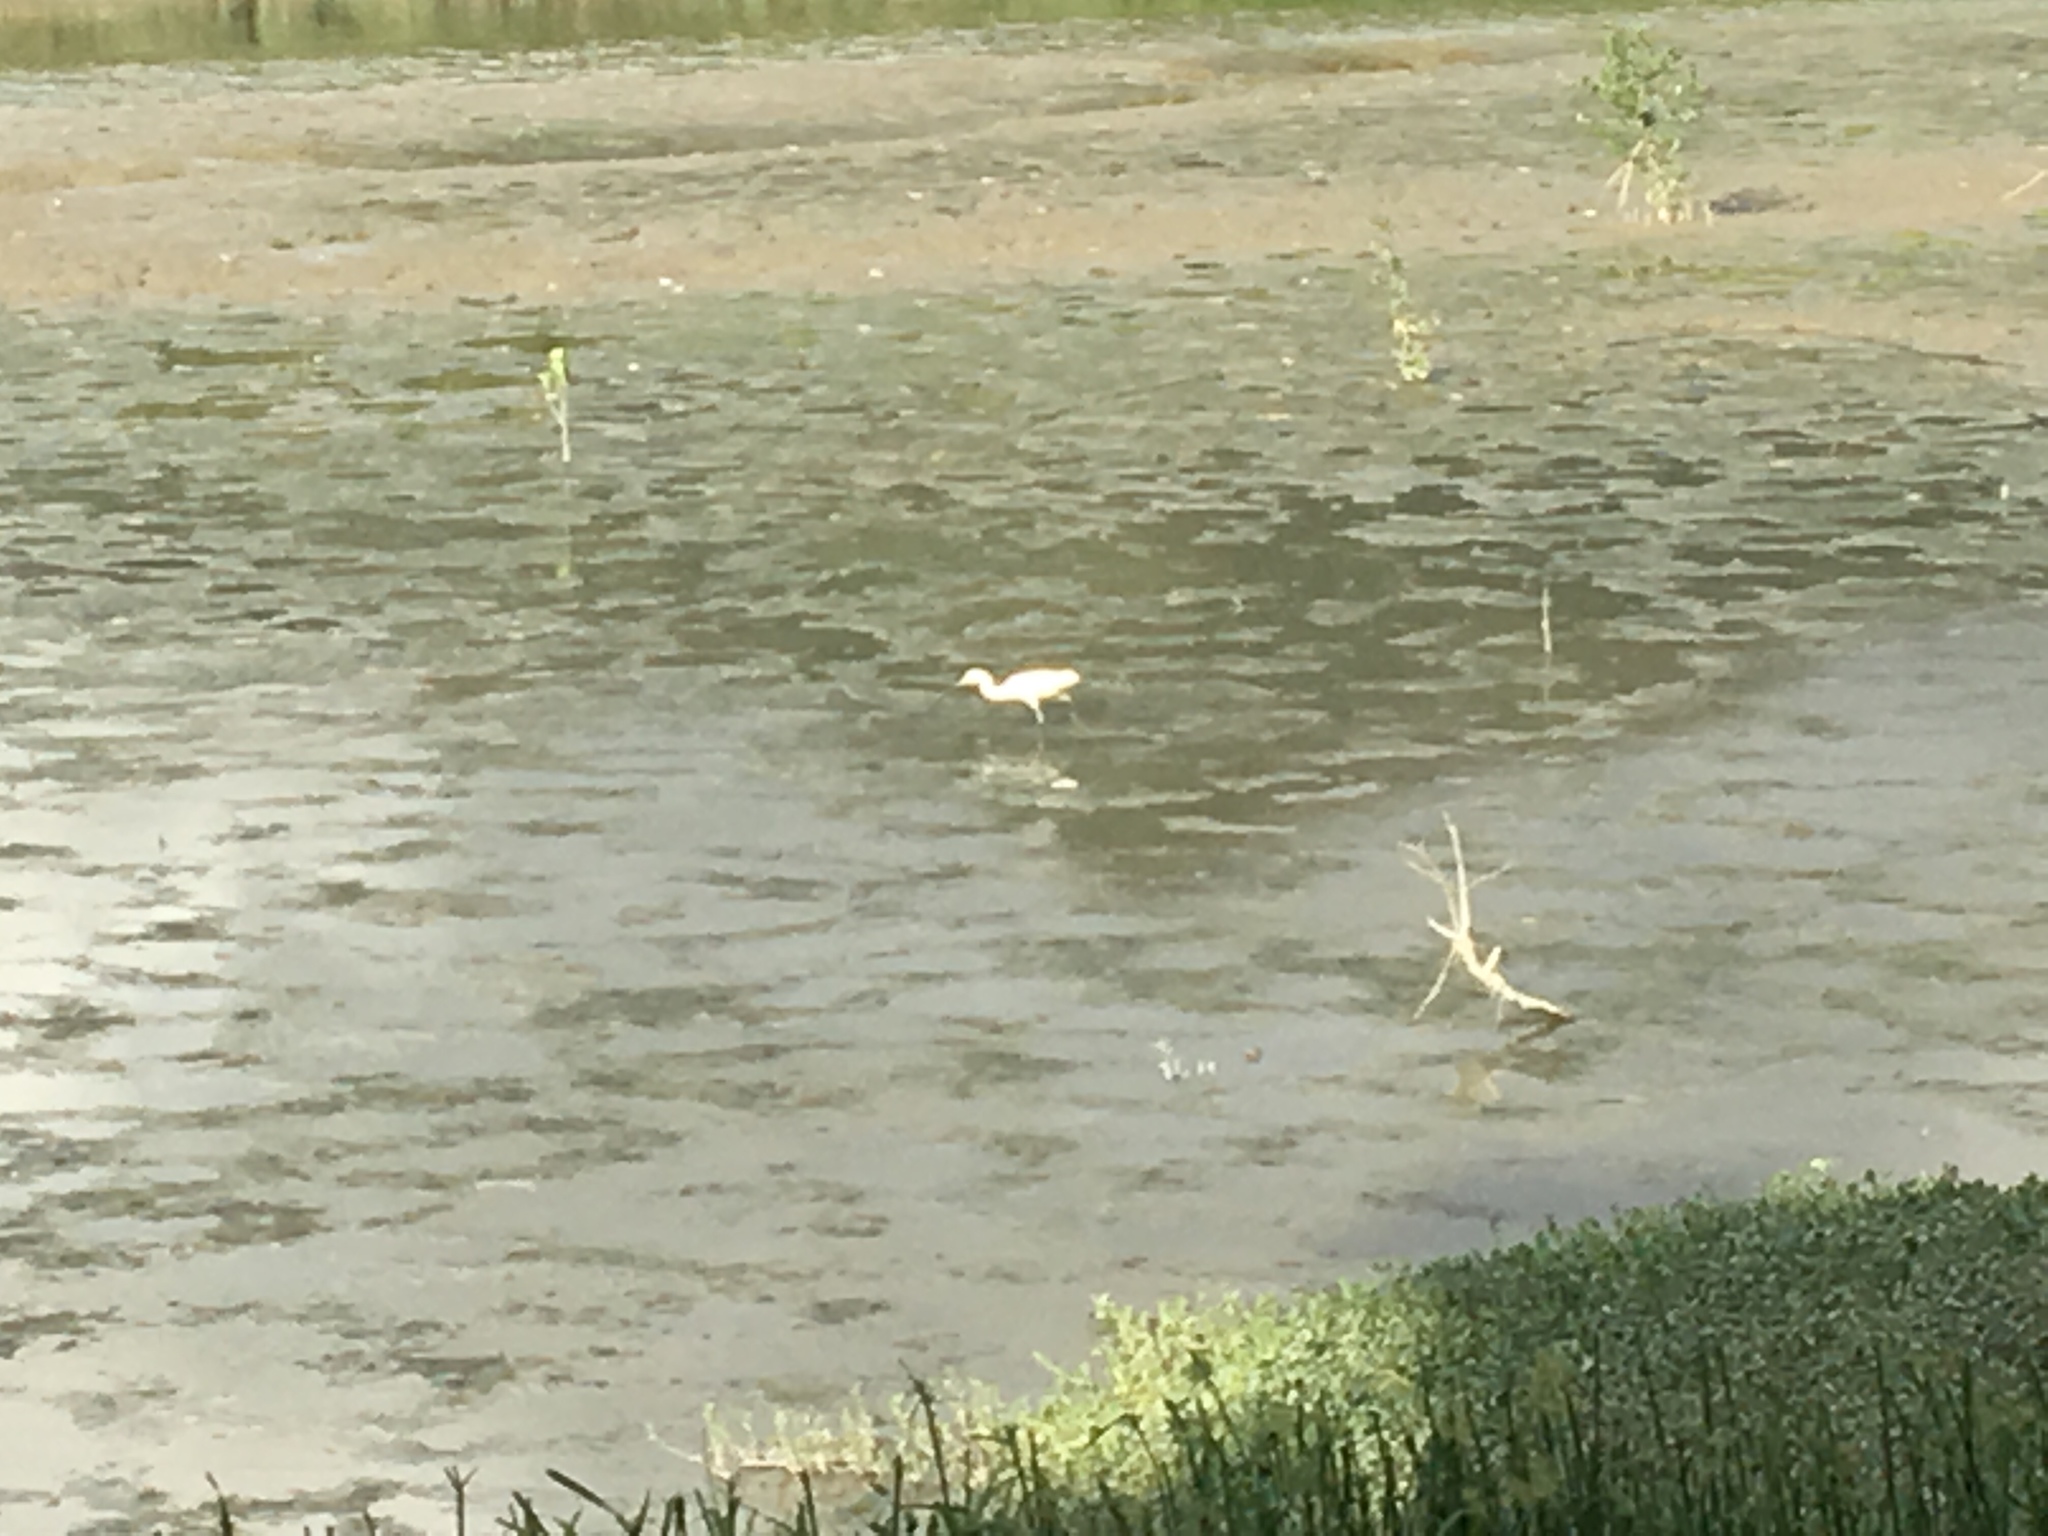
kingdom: Animalia
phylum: Chordata
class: Aves
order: Pelecaniformes
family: Ardeidae
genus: Egretta
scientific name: Egretta garzetta
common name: Little egret
